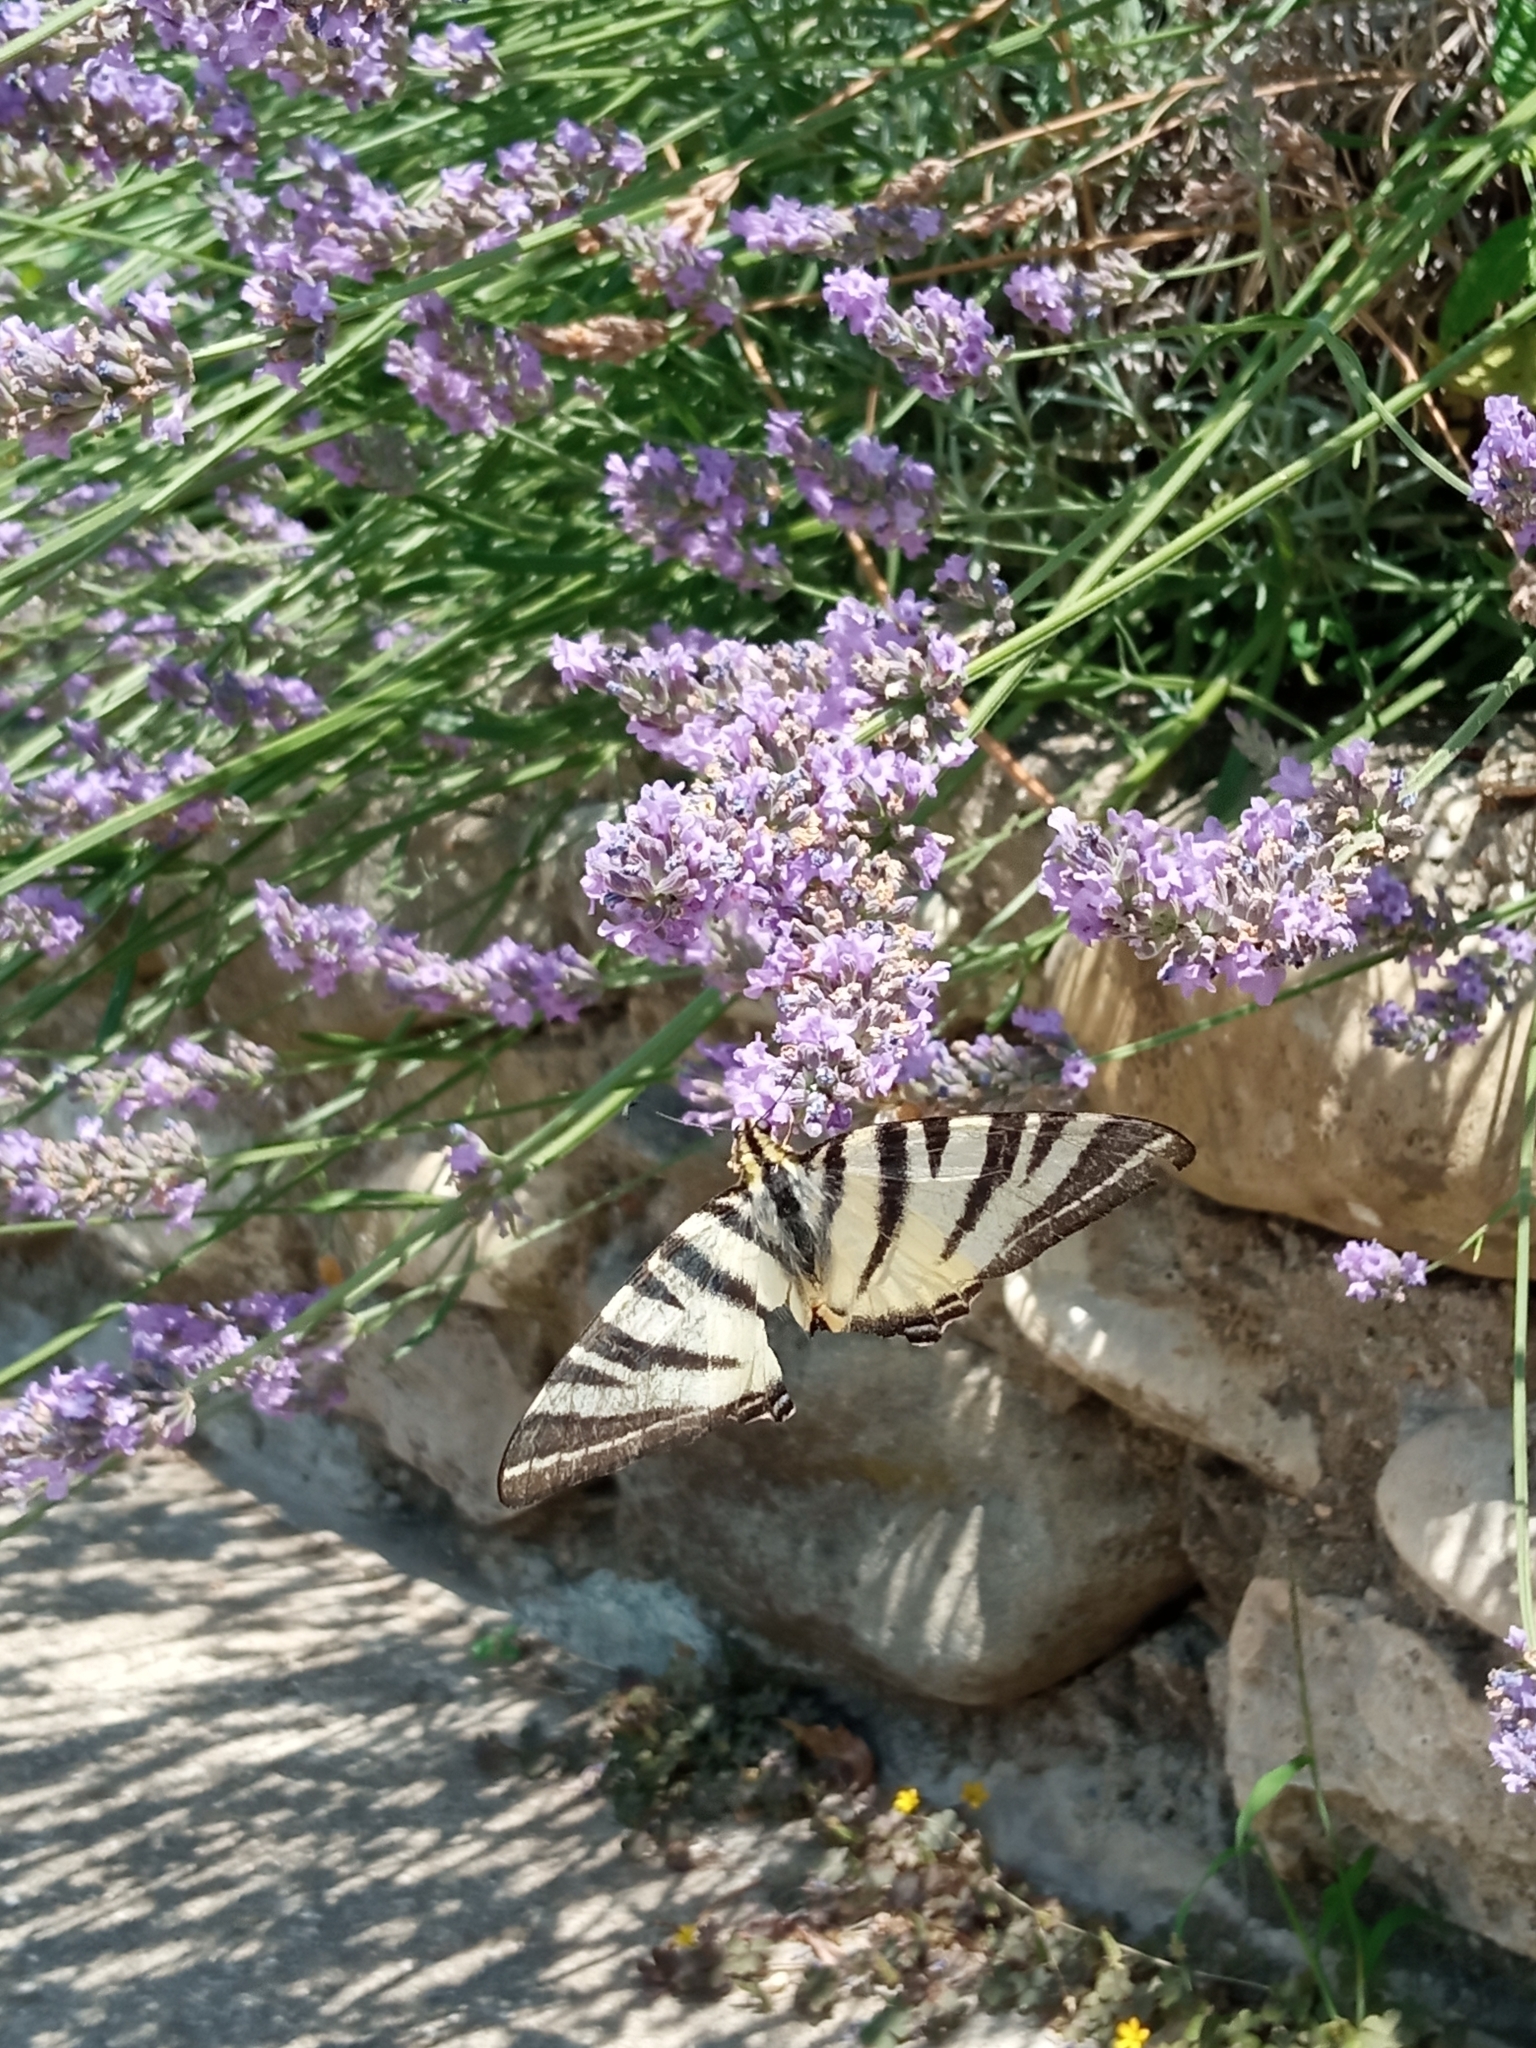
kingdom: Animalia
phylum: Arthropoda
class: Insecta
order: Lepidoptera
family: Papilionidae
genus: Iphiclides
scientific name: Iphiclides podalirius
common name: Scarce swallowtail
